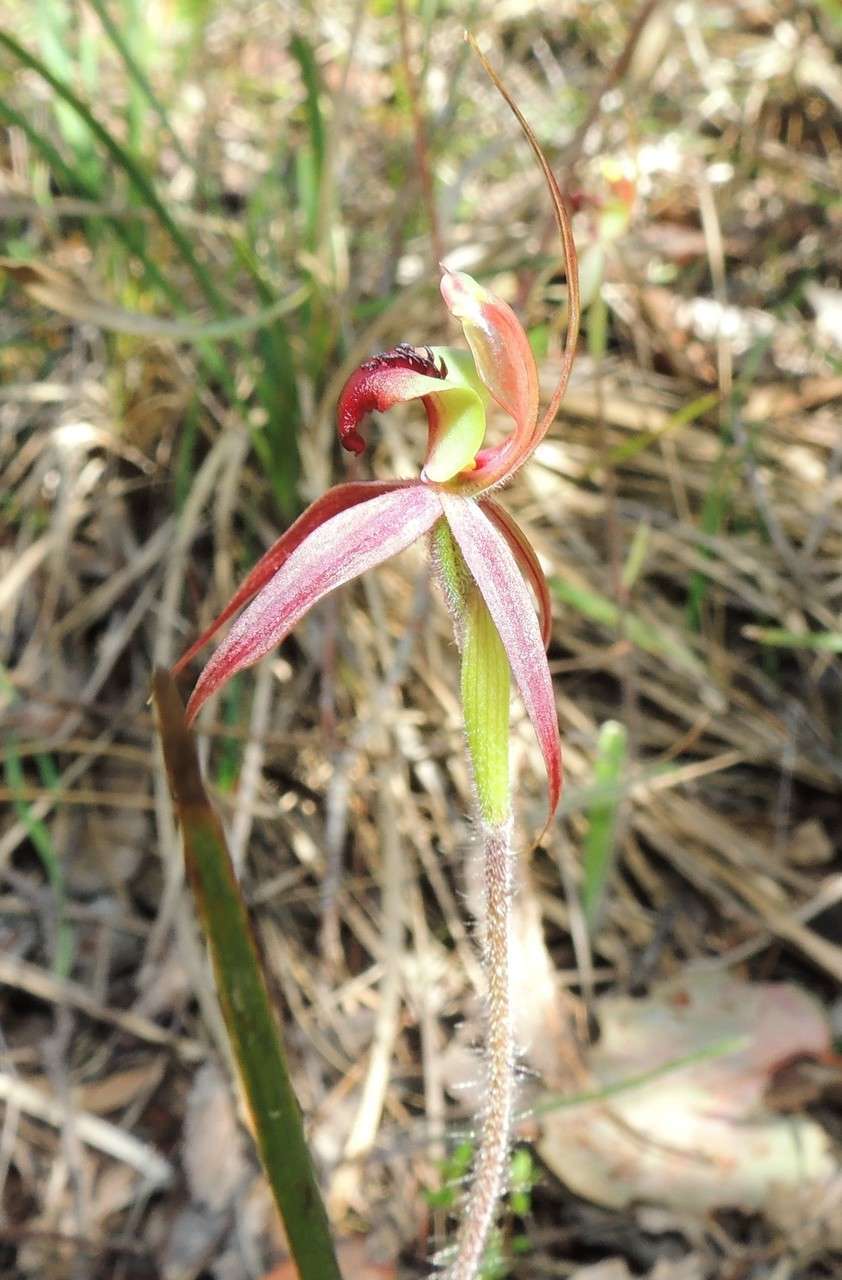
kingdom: Plantae
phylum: Tracheophyta
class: Liliopsida
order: Asparagales
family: Orchidaceae
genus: Caladenia
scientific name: Caladenia clavigera
